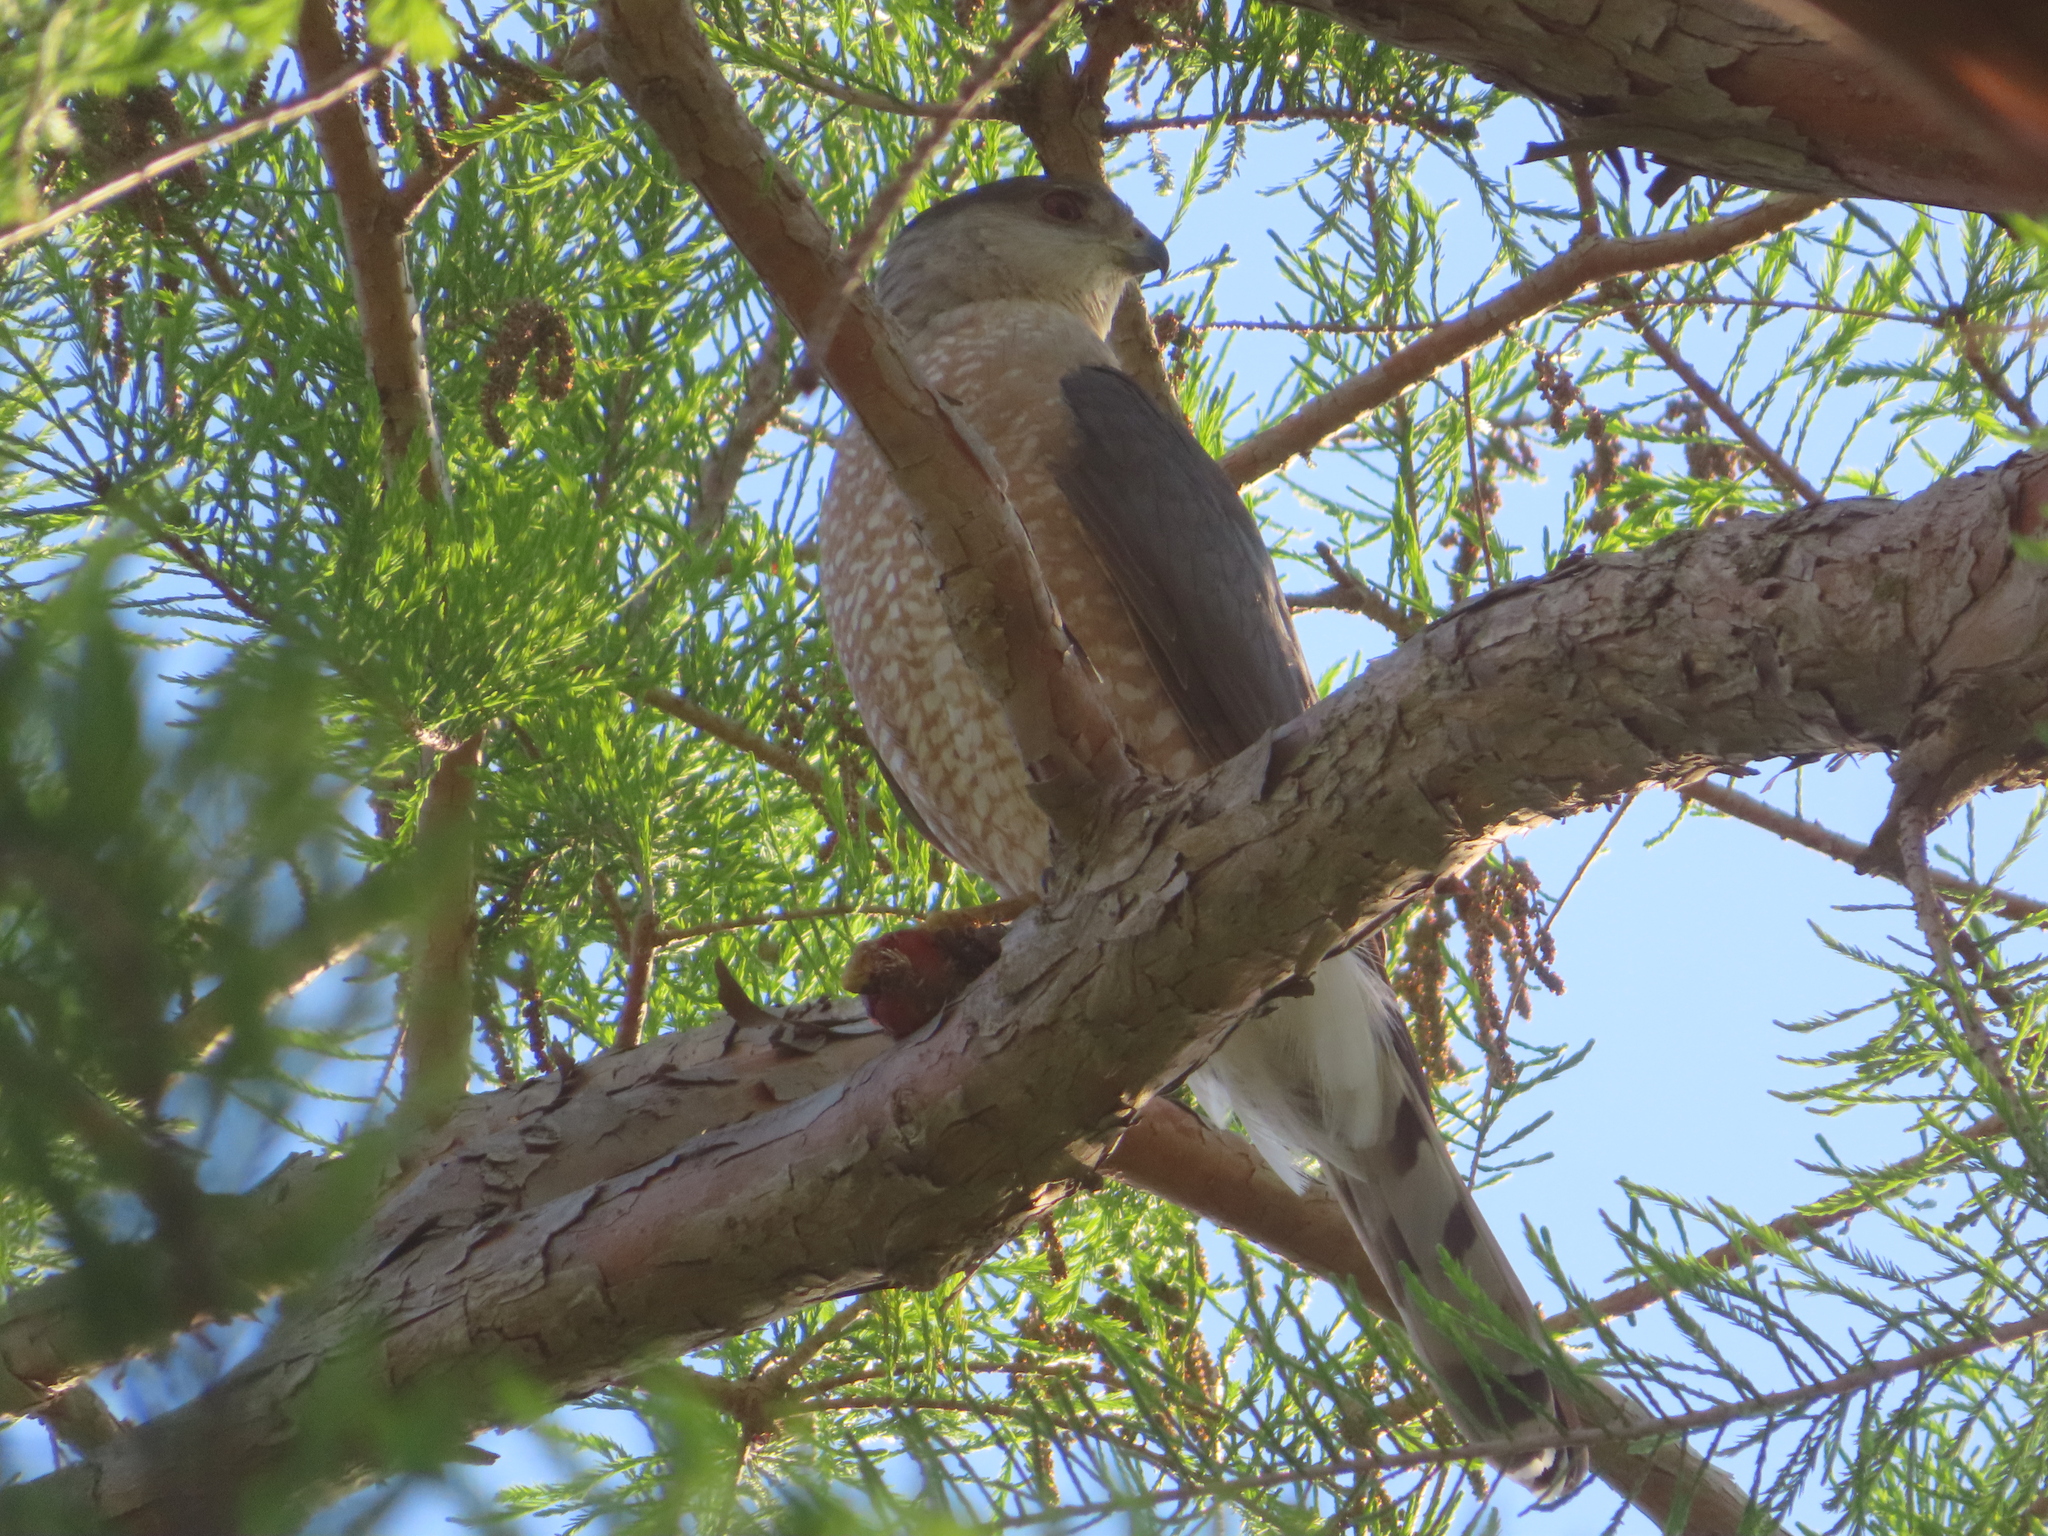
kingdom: Animalia
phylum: Chordata
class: Aves
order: Accipitriformes
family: Accipitridae
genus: Accipiter
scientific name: Accipiter cooperii
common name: Cooper's hawk
